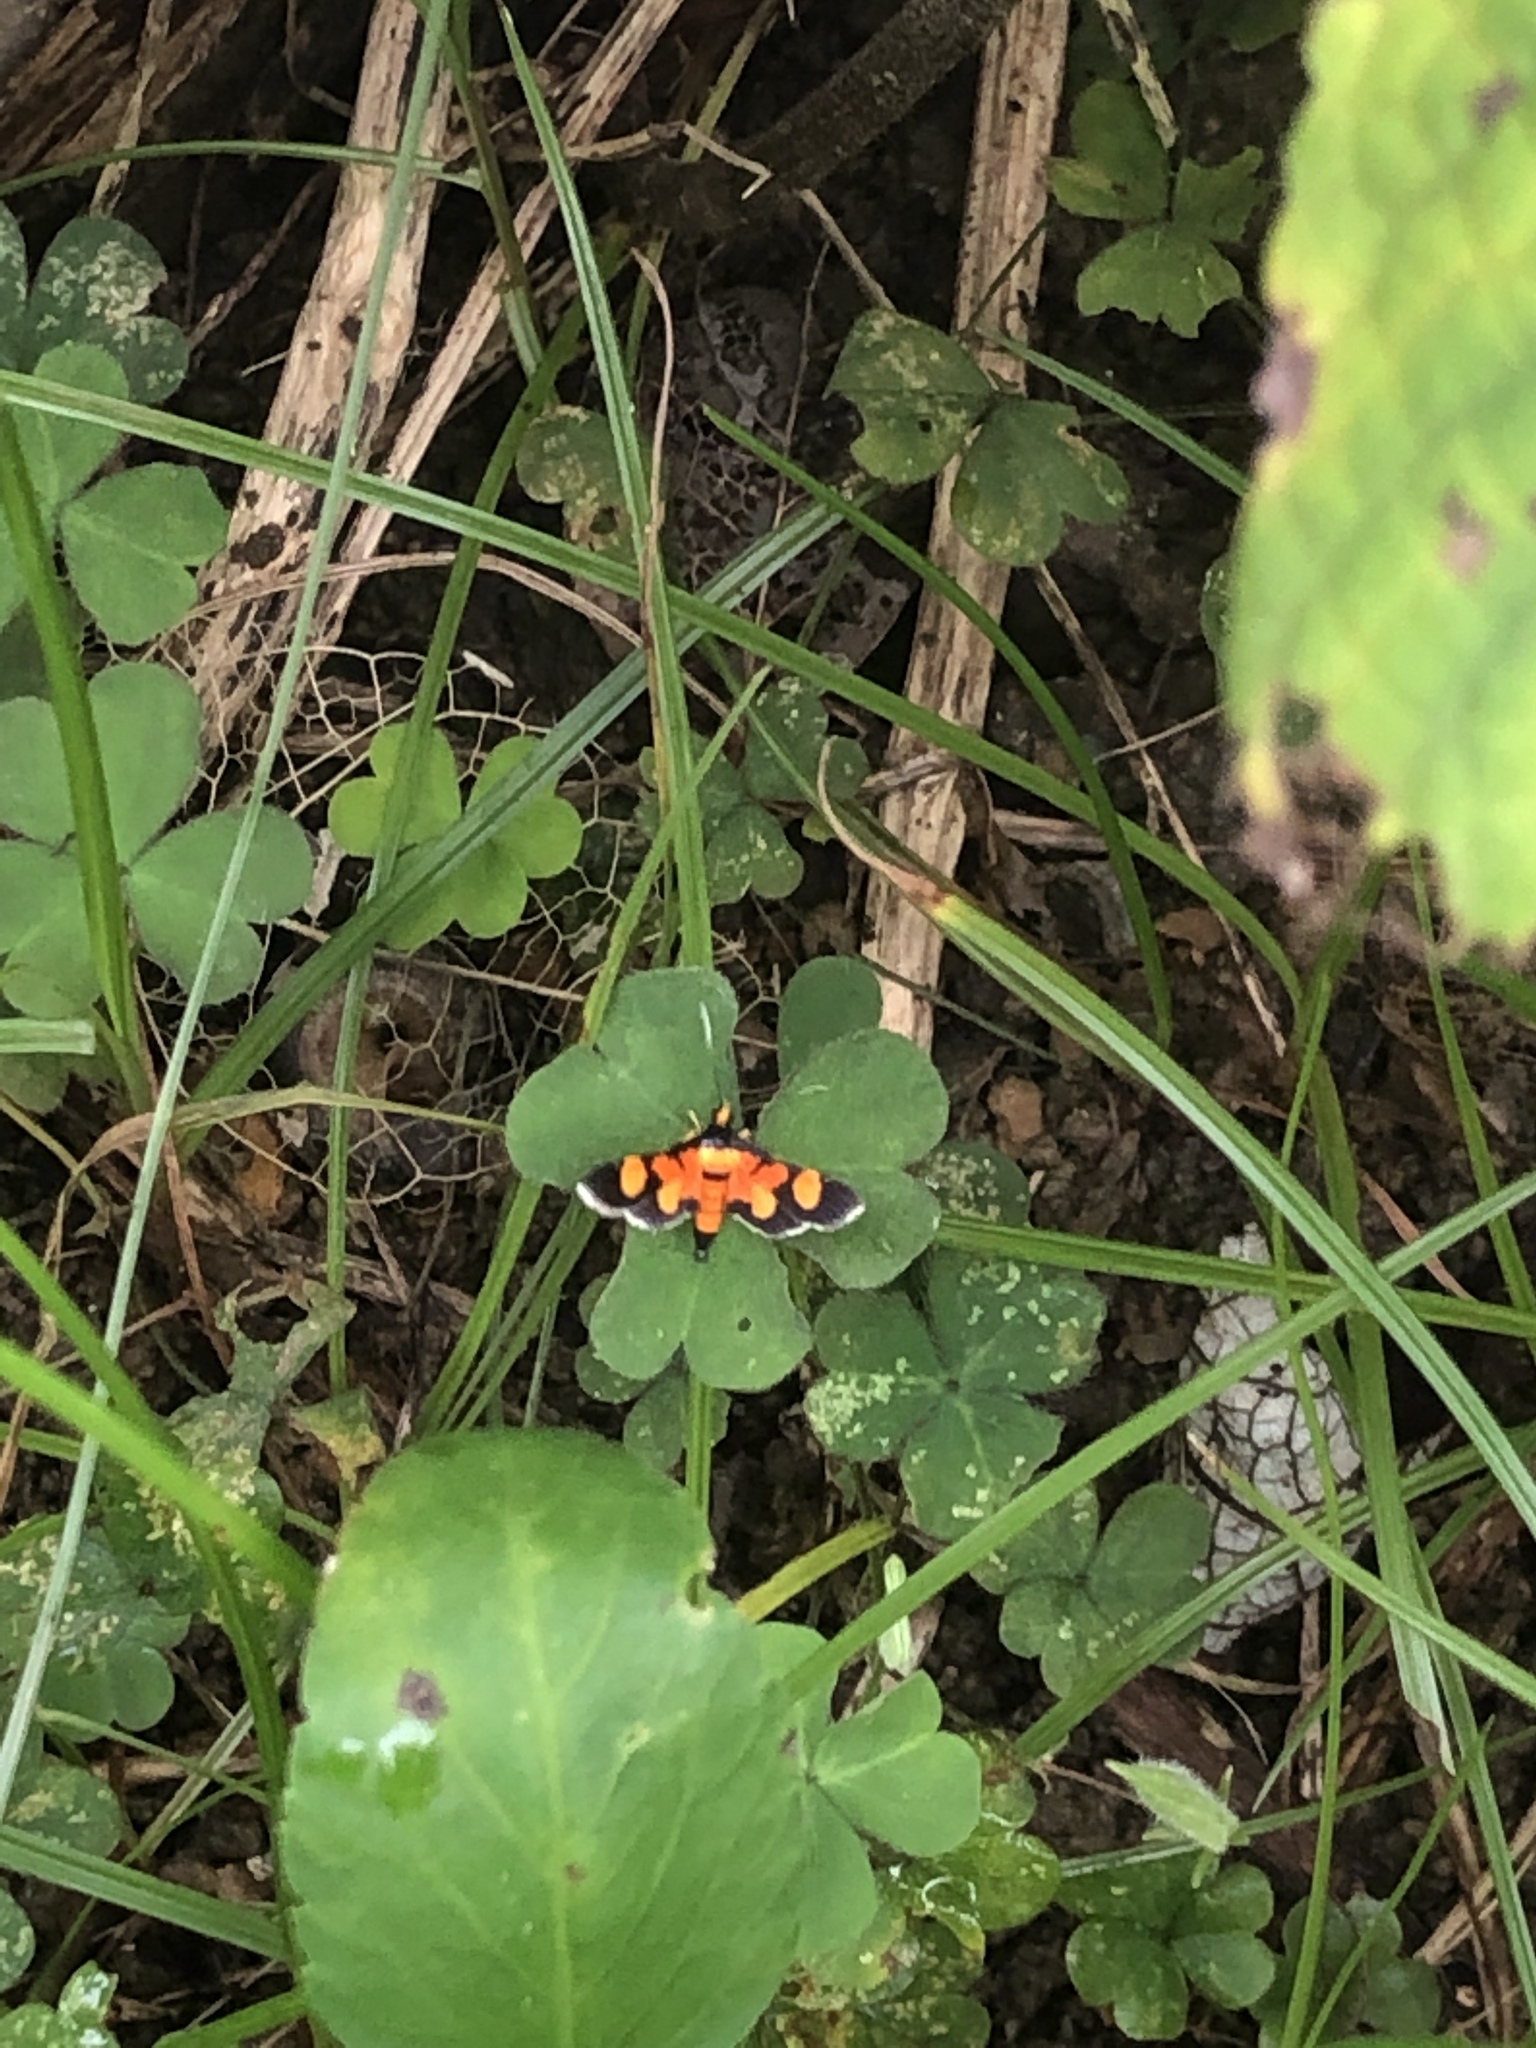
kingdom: Animalia
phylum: Arthropoda
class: Insecta
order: Lepidoptera
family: Crambidae
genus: Aethaloessa
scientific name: Aethaloessa calidalis
